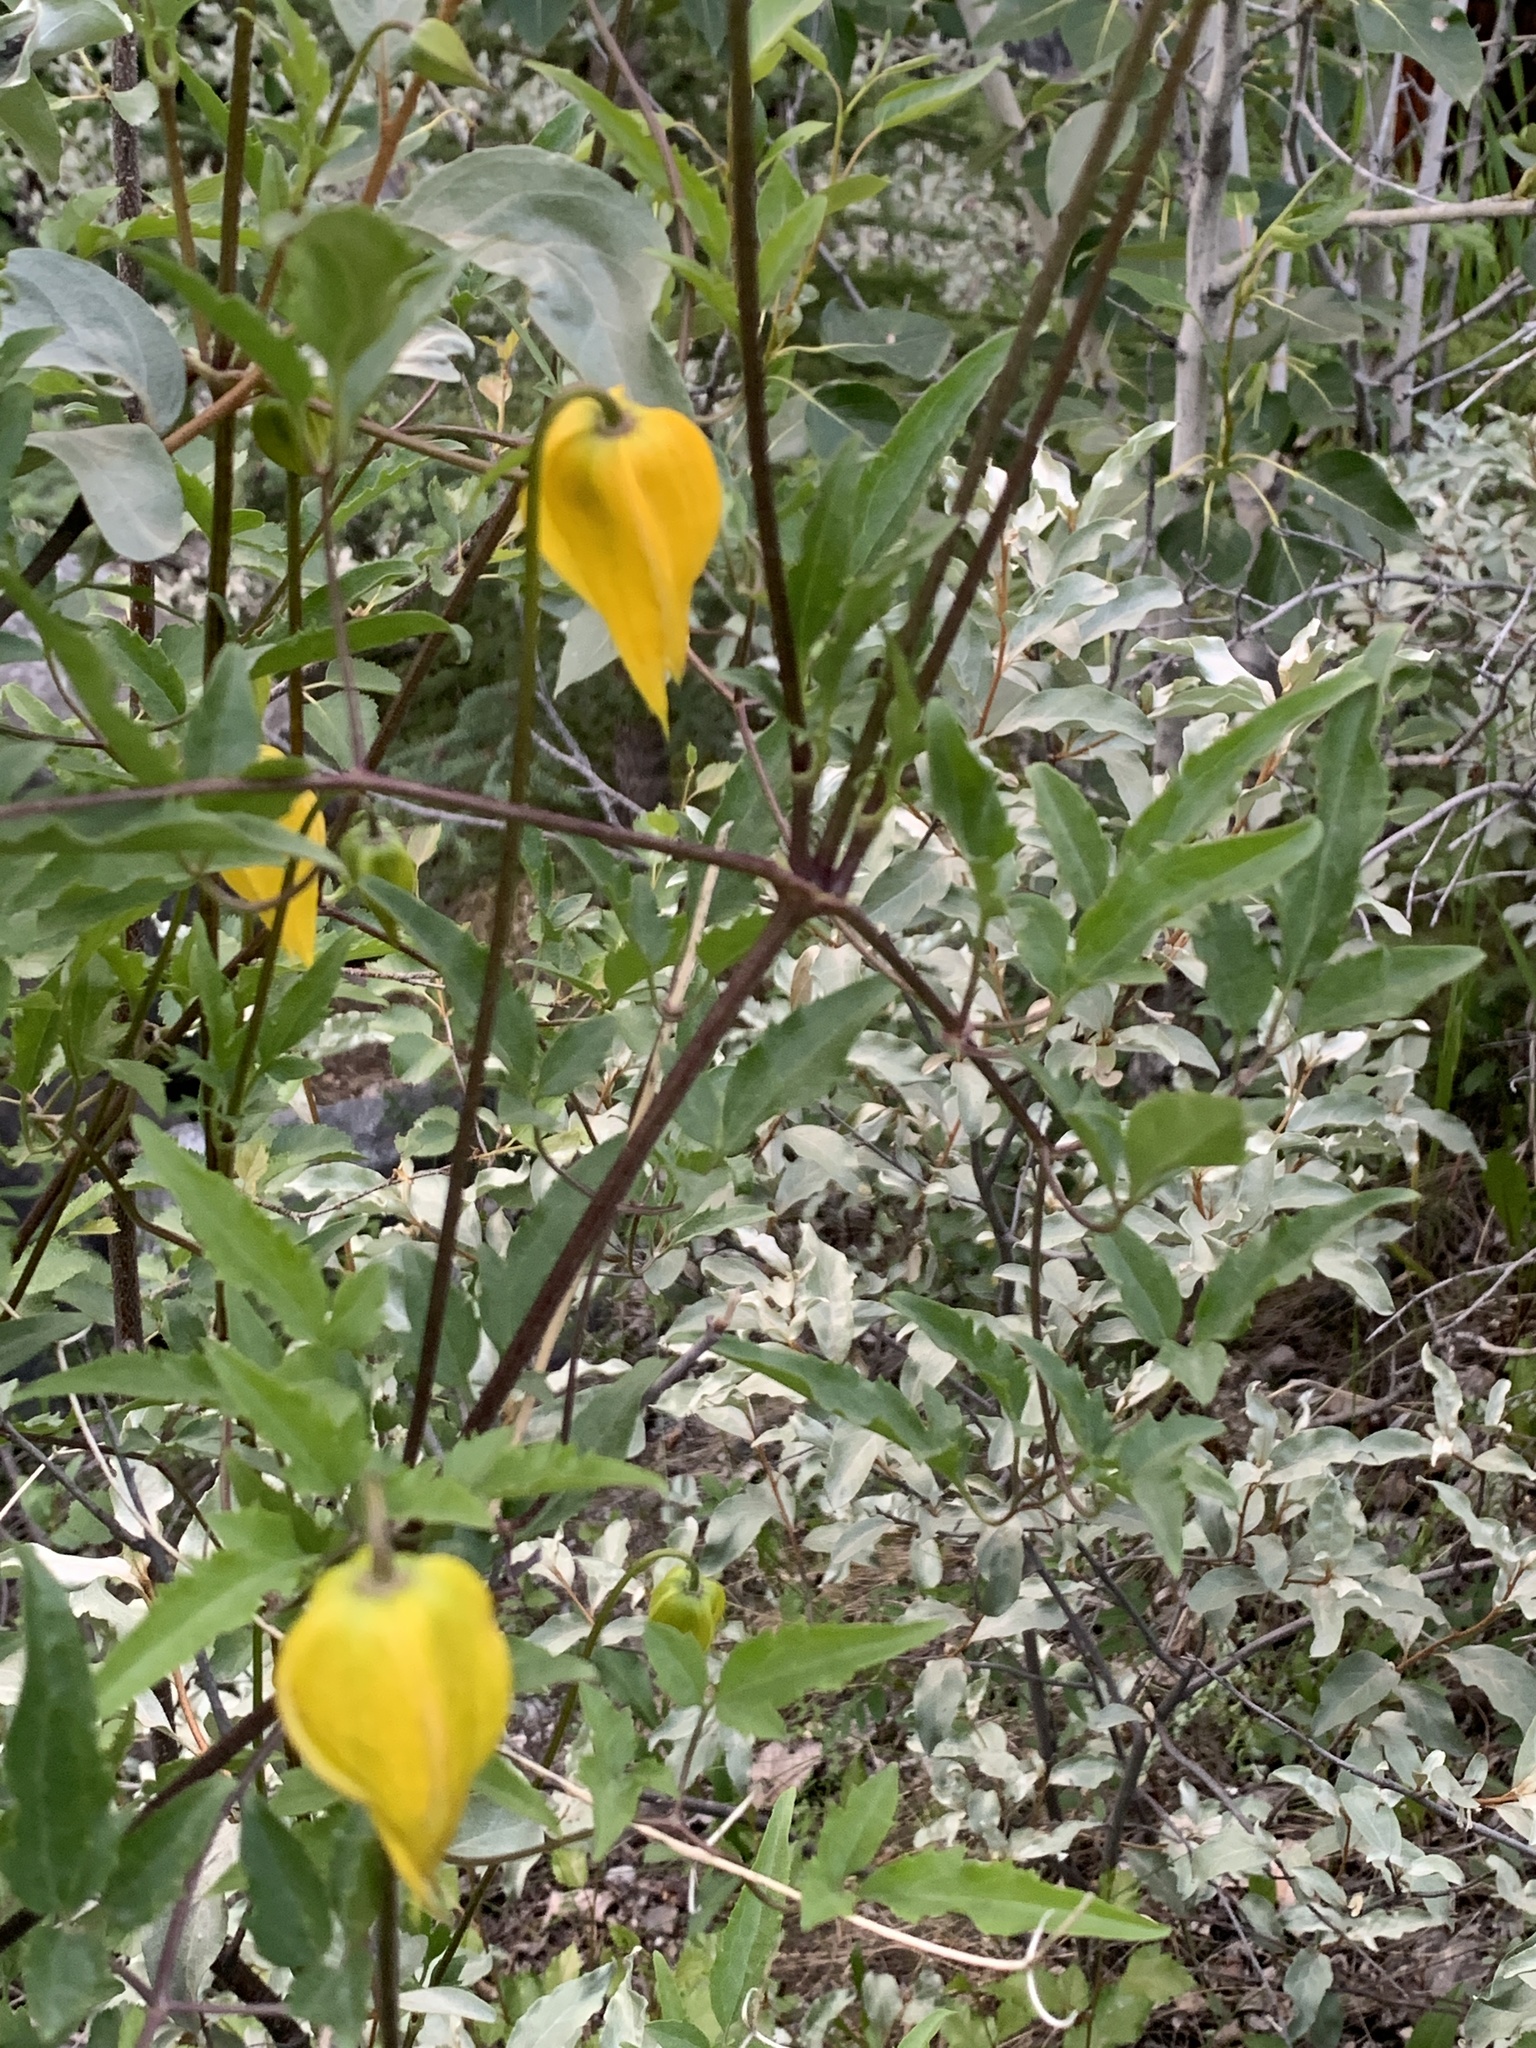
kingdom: Plantae
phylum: Tracheophyta
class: Magnoliopsida
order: Ranunculales
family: Ranunculaceae
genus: Clematis
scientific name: Clematis tangutica
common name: Orange-peel clematis
